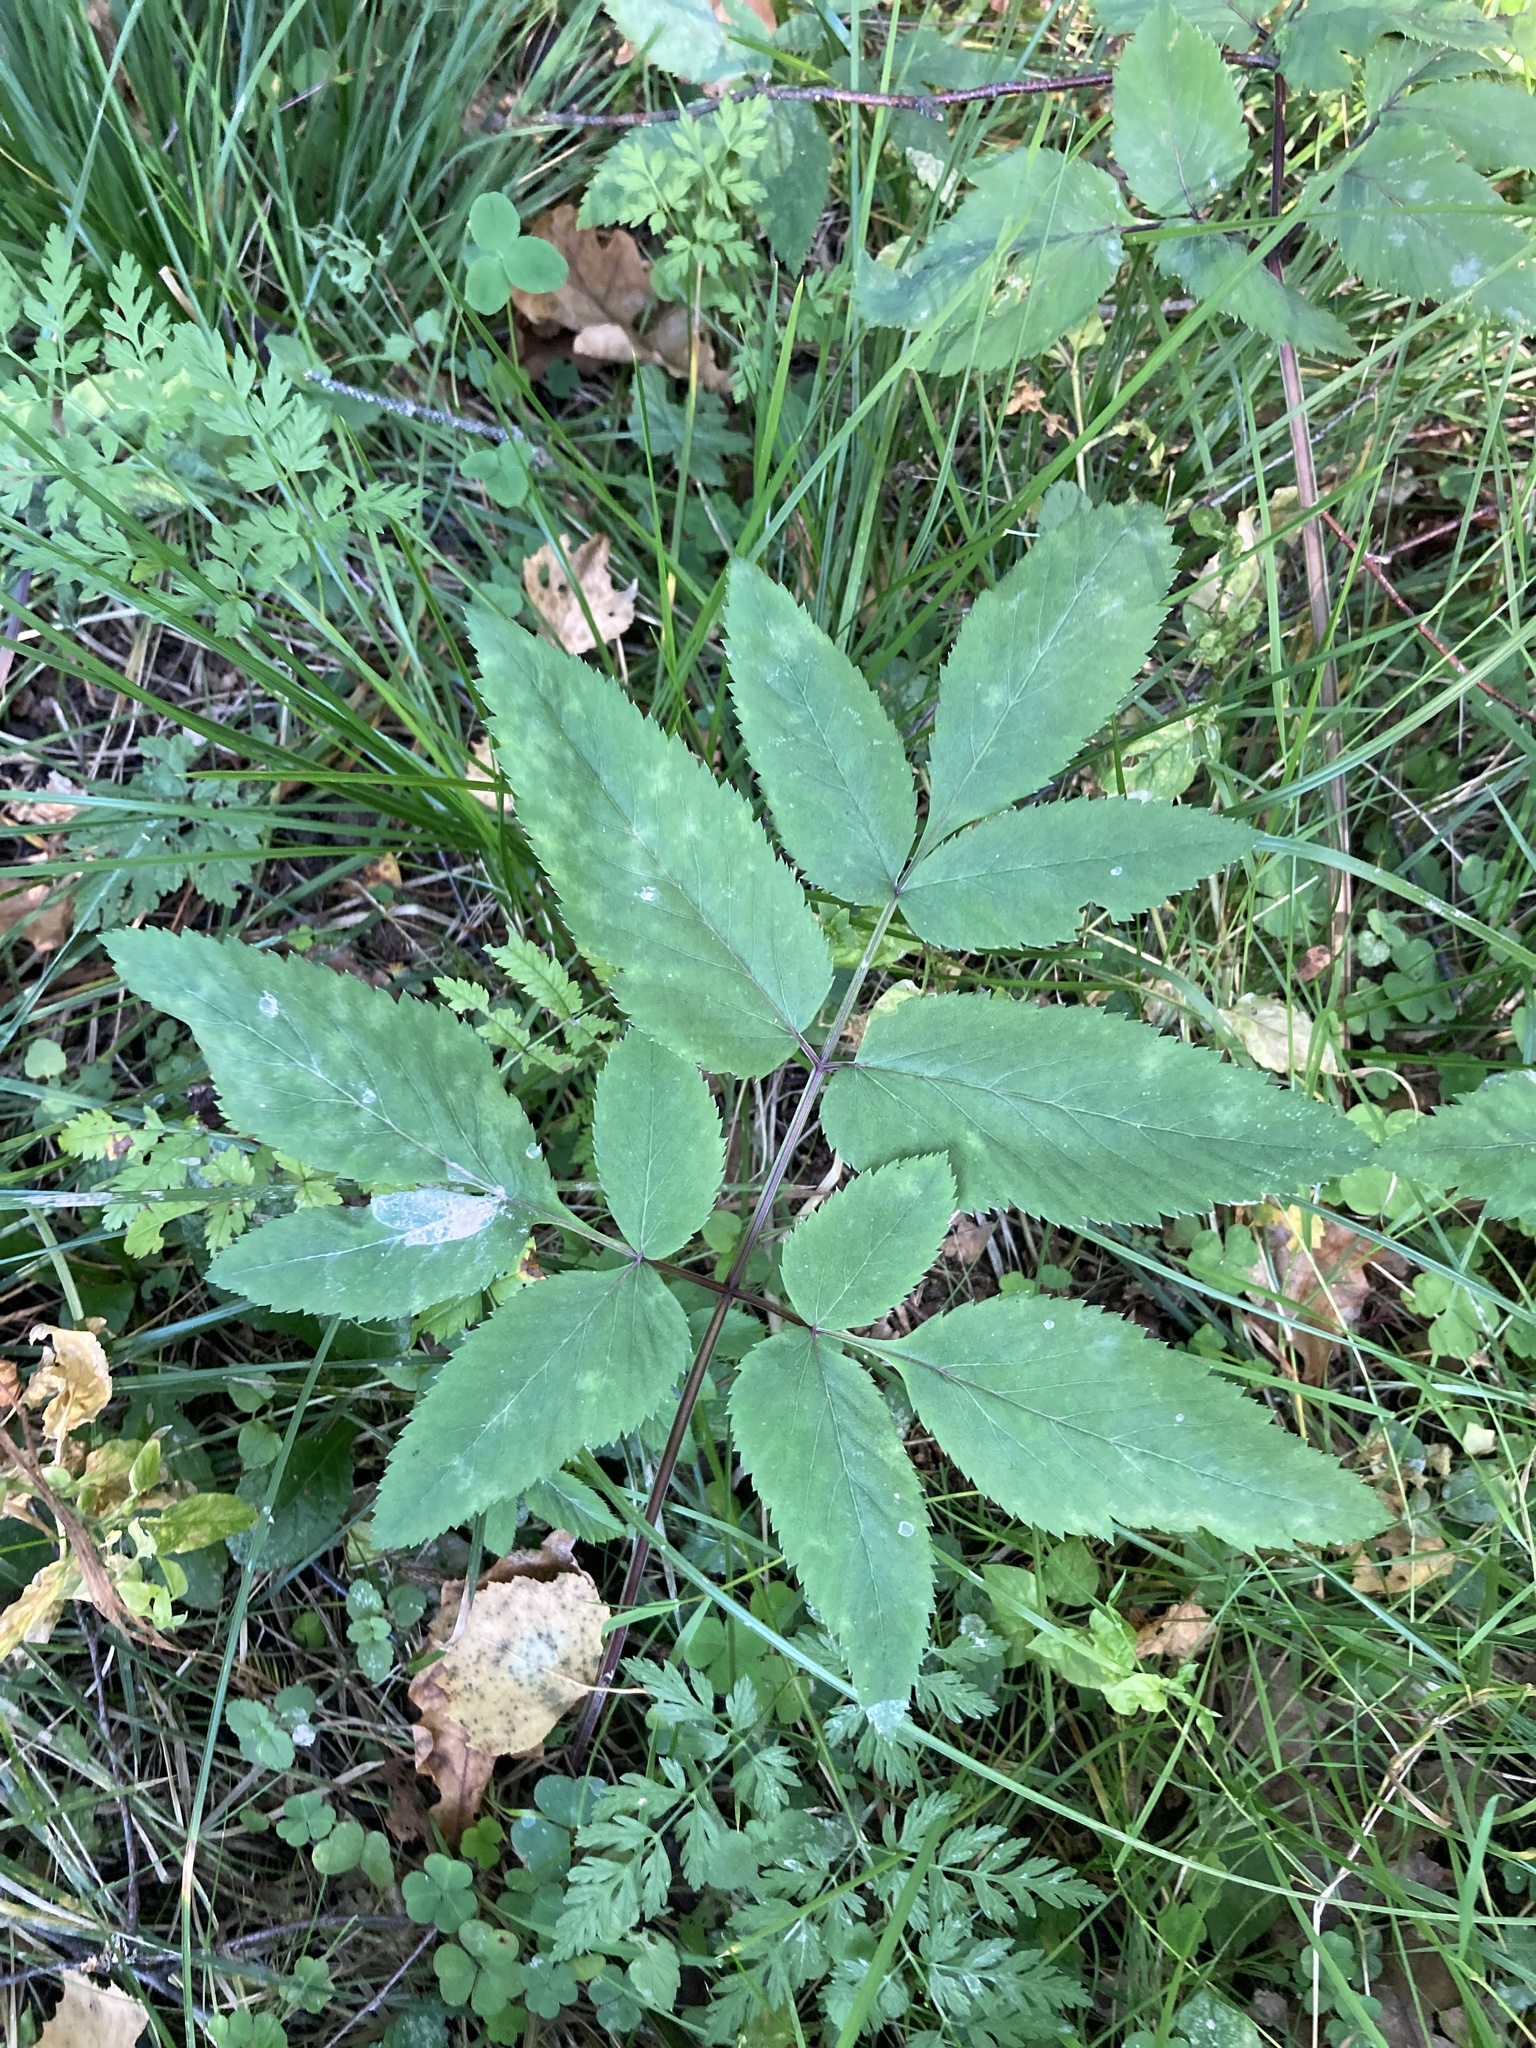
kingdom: Plantae
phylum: Tracheophyta
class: Magnoliopsida
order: Apiales
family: Apiaceae
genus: Angelica
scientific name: Angelica sylvestris
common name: Wild angelica
